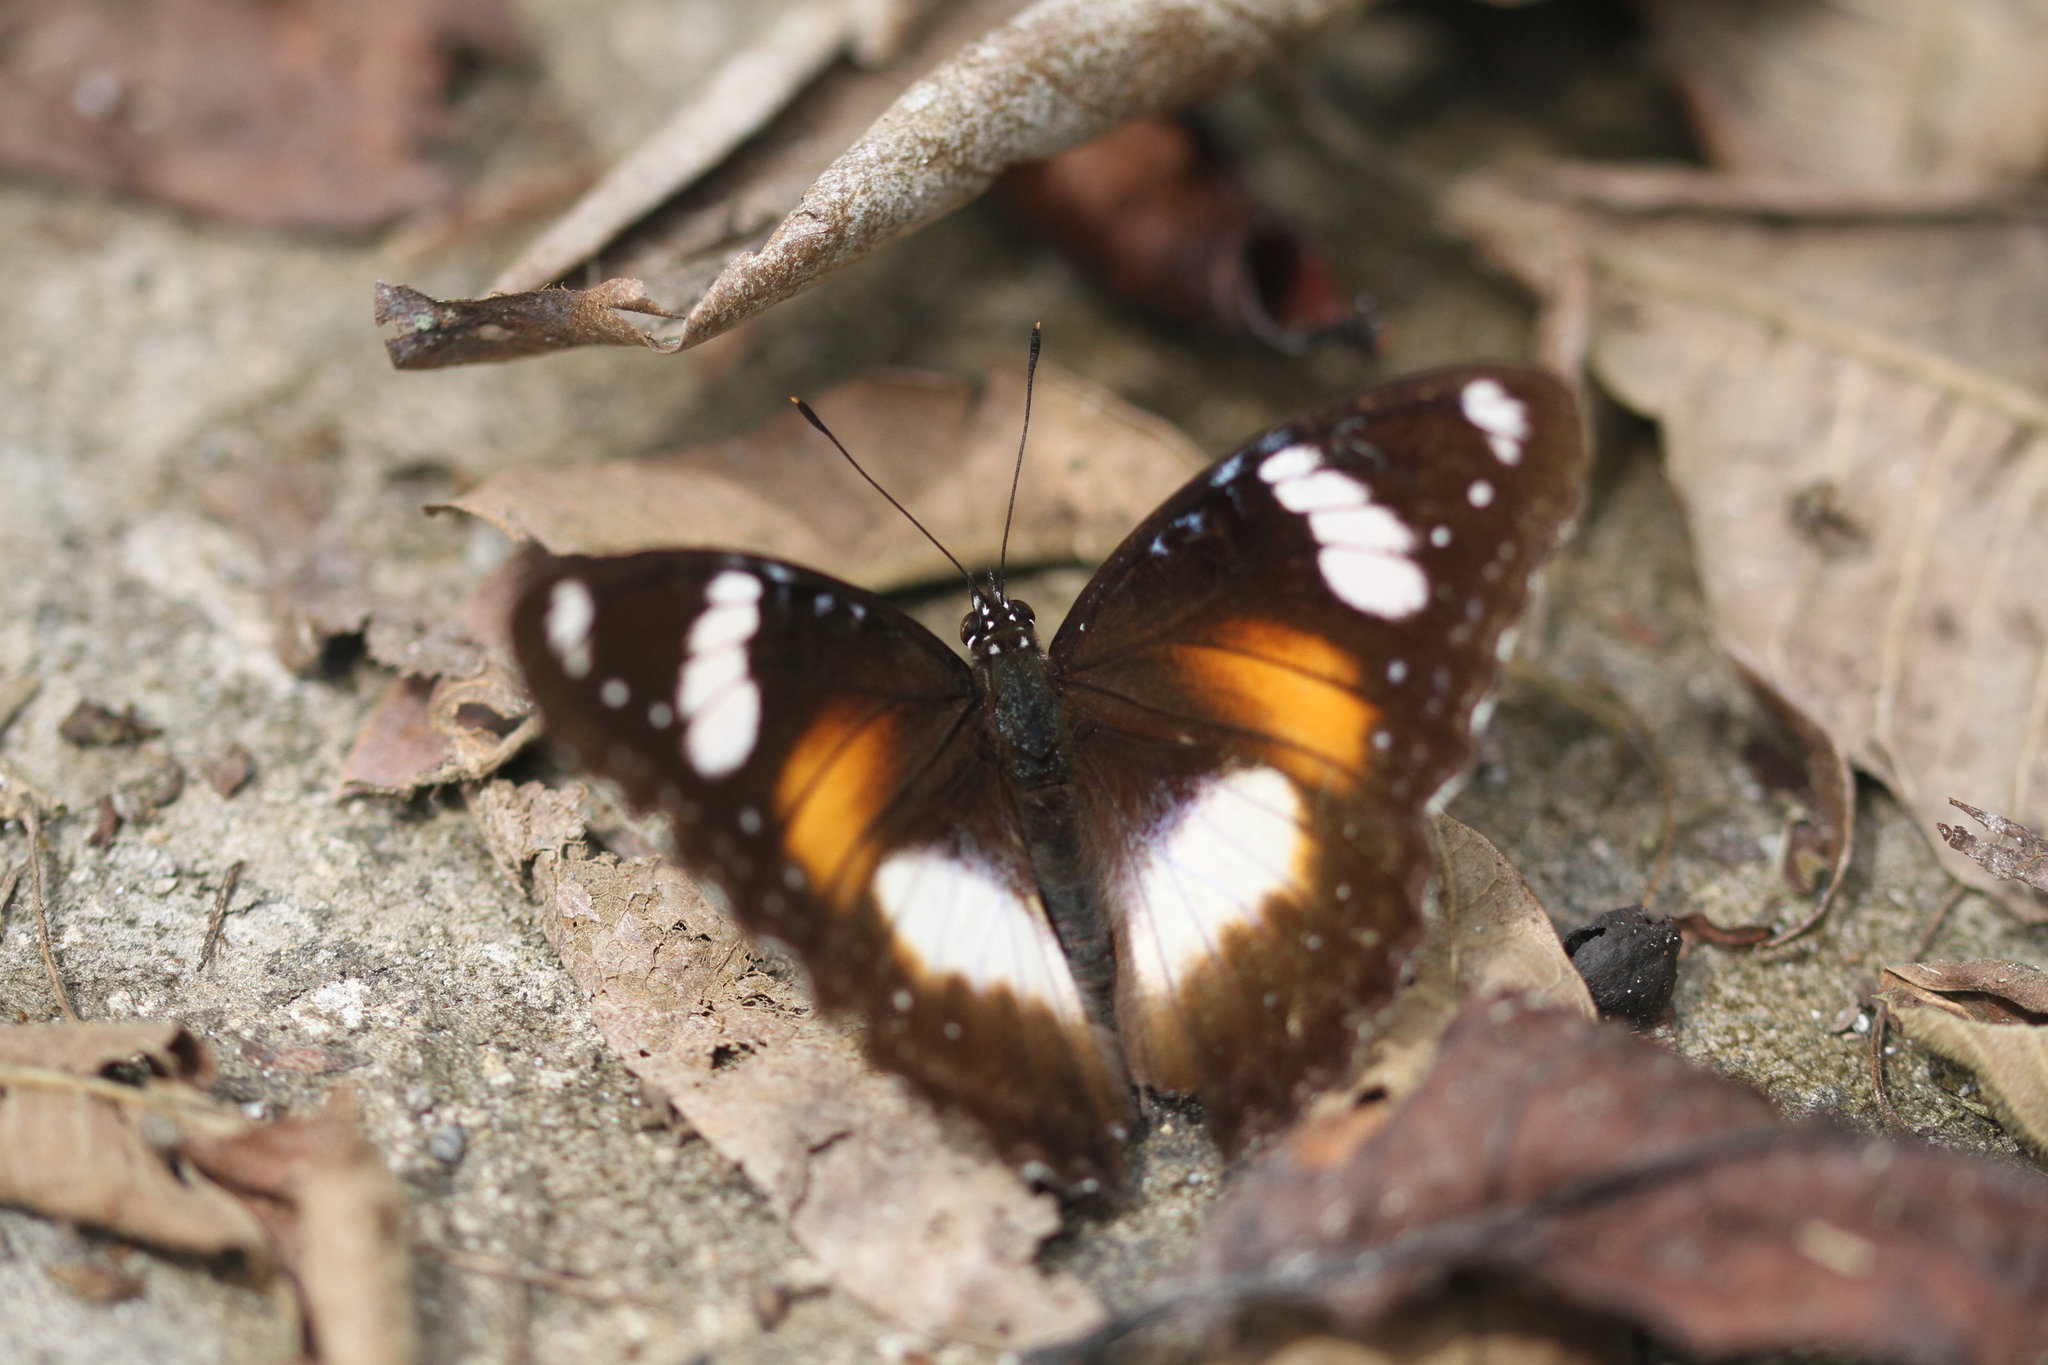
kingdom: Animalia
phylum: Arthropoda
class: Insecta
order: Lepidoptera
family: Nymphalidae
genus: Hypolimnas
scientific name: Hypolimnas bolina
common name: Great eggfly
